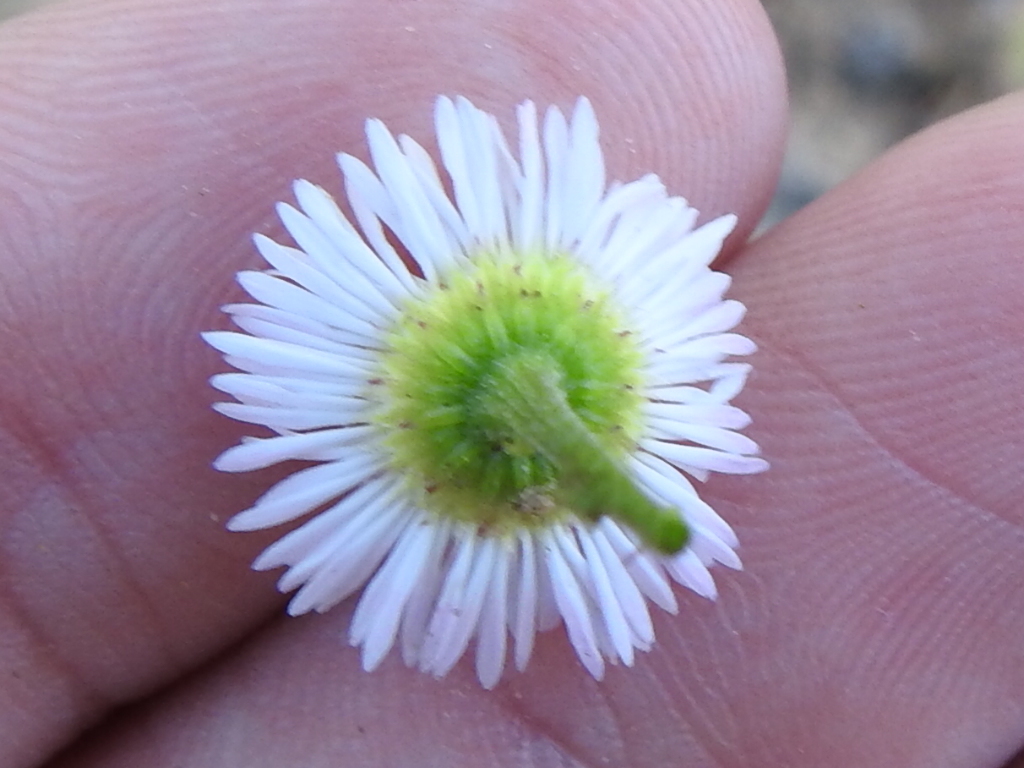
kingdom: Plantae
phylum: Tracheophyta
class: Magnoliopsida
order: Asterales
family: Asteraceae
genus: Erigeron
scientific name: Erigeron strigosus
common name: Common eastern fleabane
